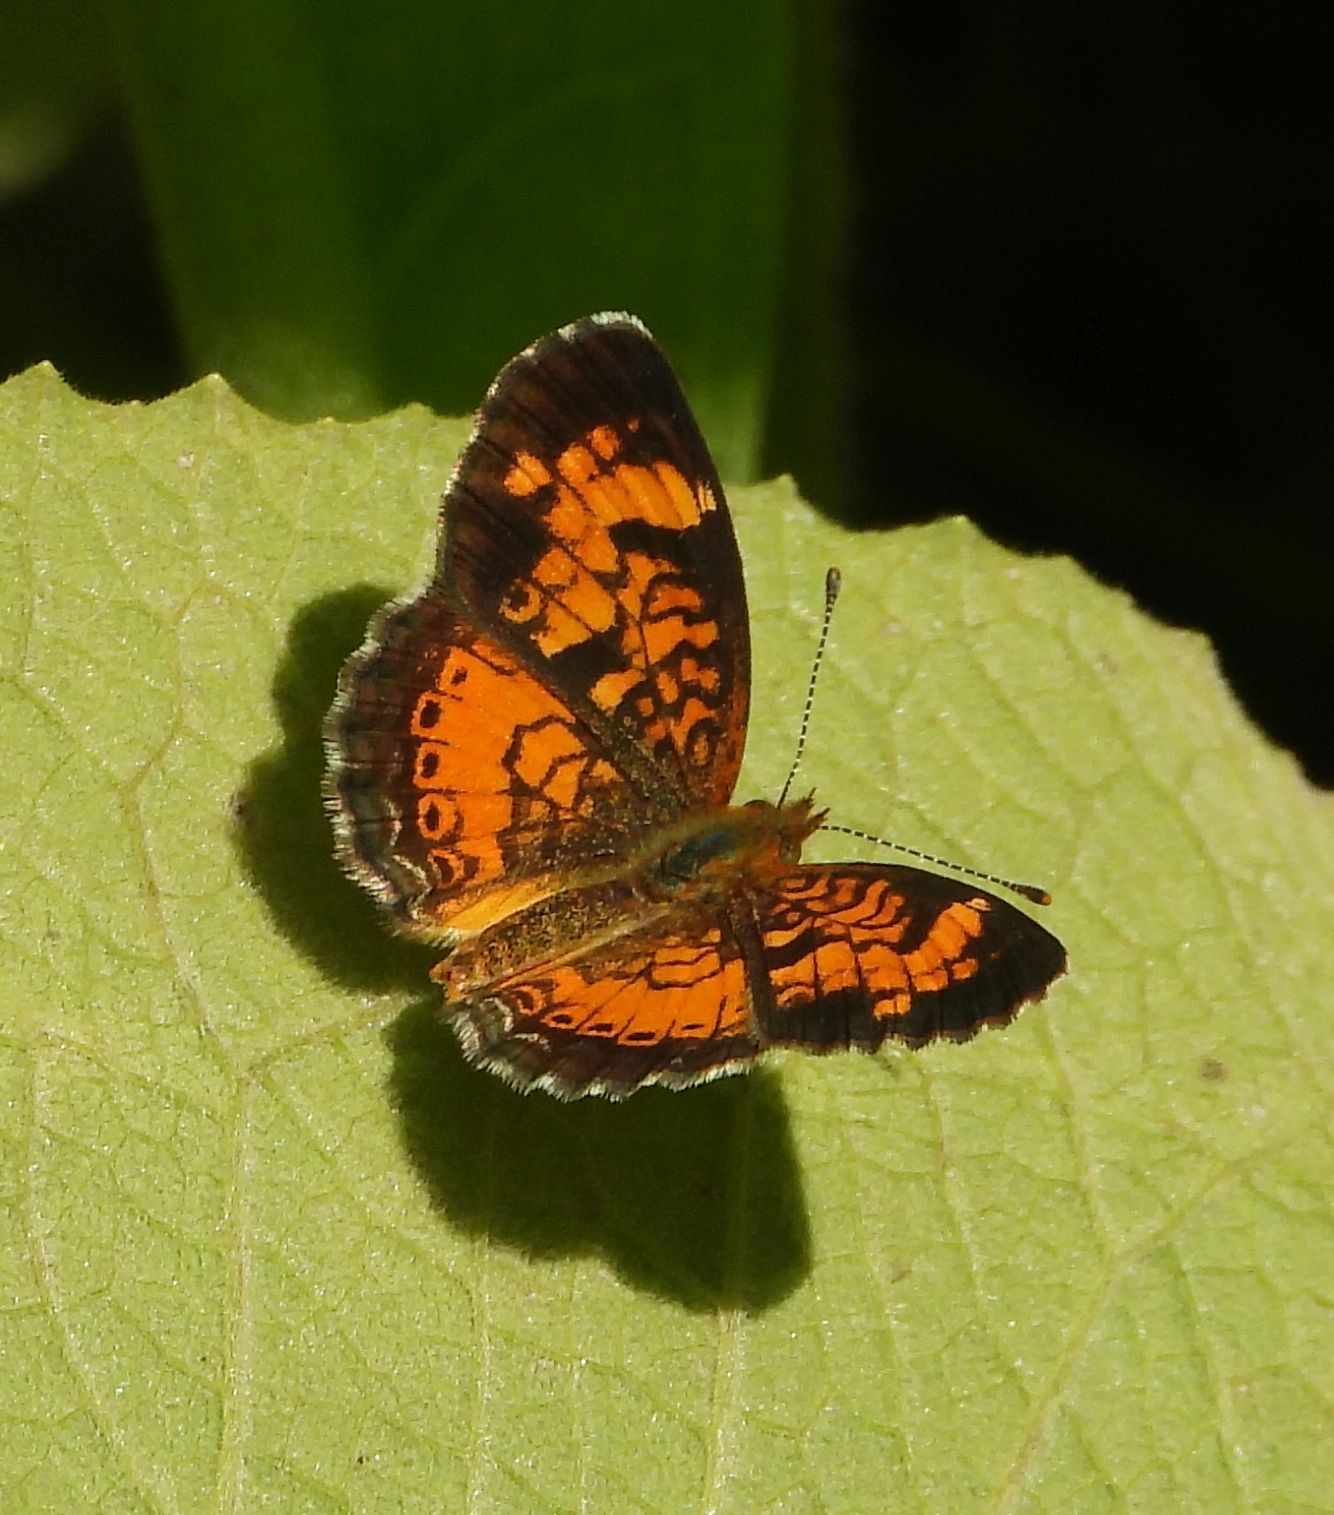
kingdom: Animalia
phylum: Arthropoda
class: Insecta
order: Lepidoptera
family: Nymphalidae
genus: Phyciodes
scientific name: Phyciodes tharos
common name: Pearl crescent
